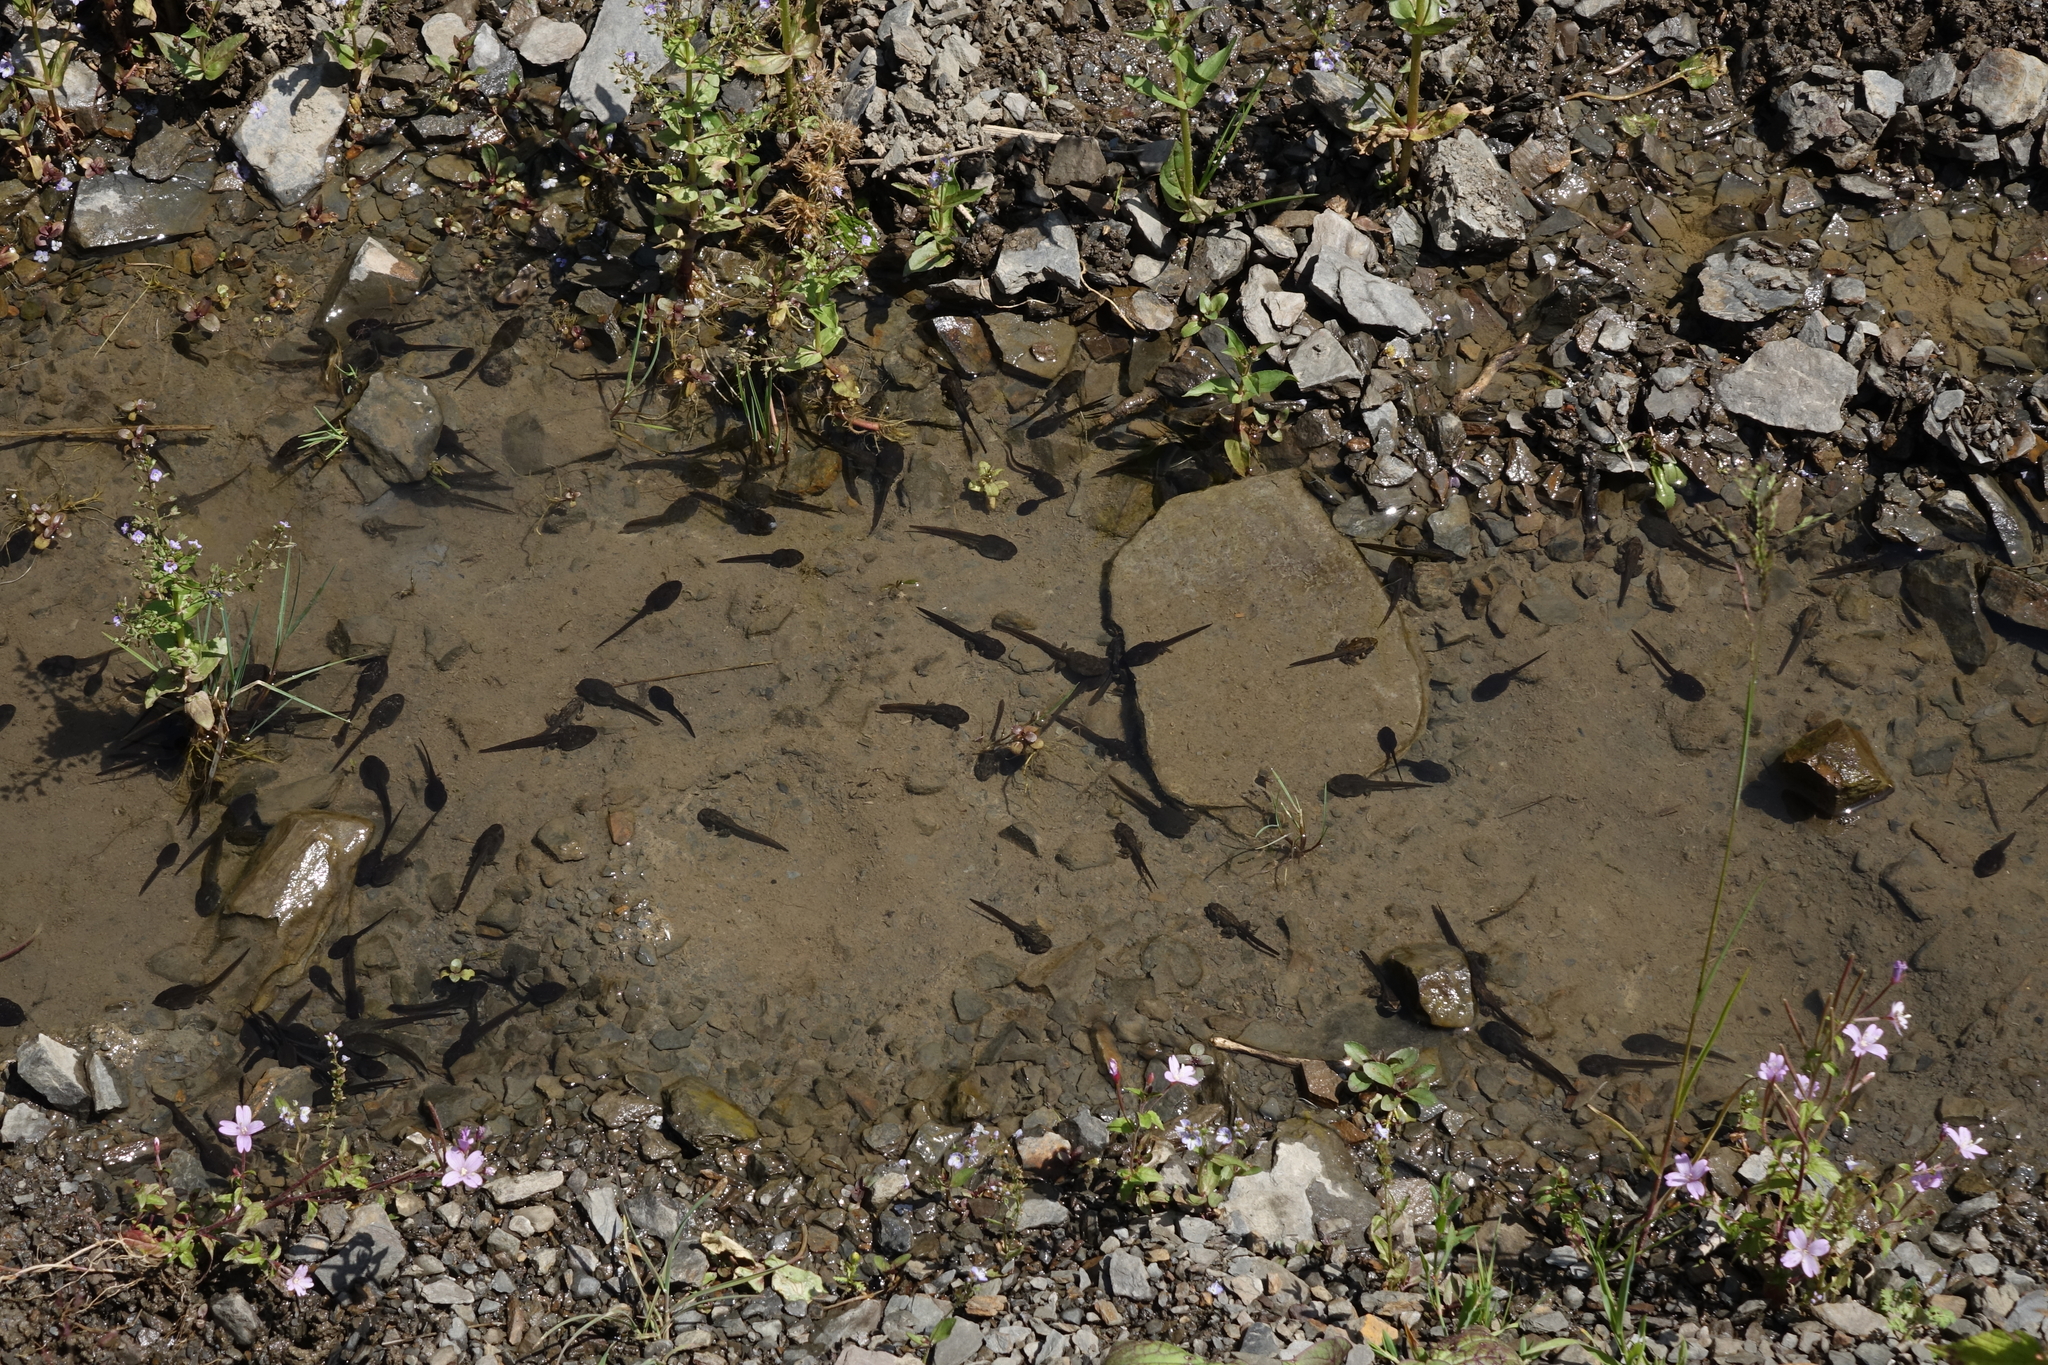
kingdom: Animalia
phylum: Chordata
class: Amphibia
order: Anura
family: Ranidae
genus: Rana
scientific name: Rana macrocnemis
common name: Banded frog
